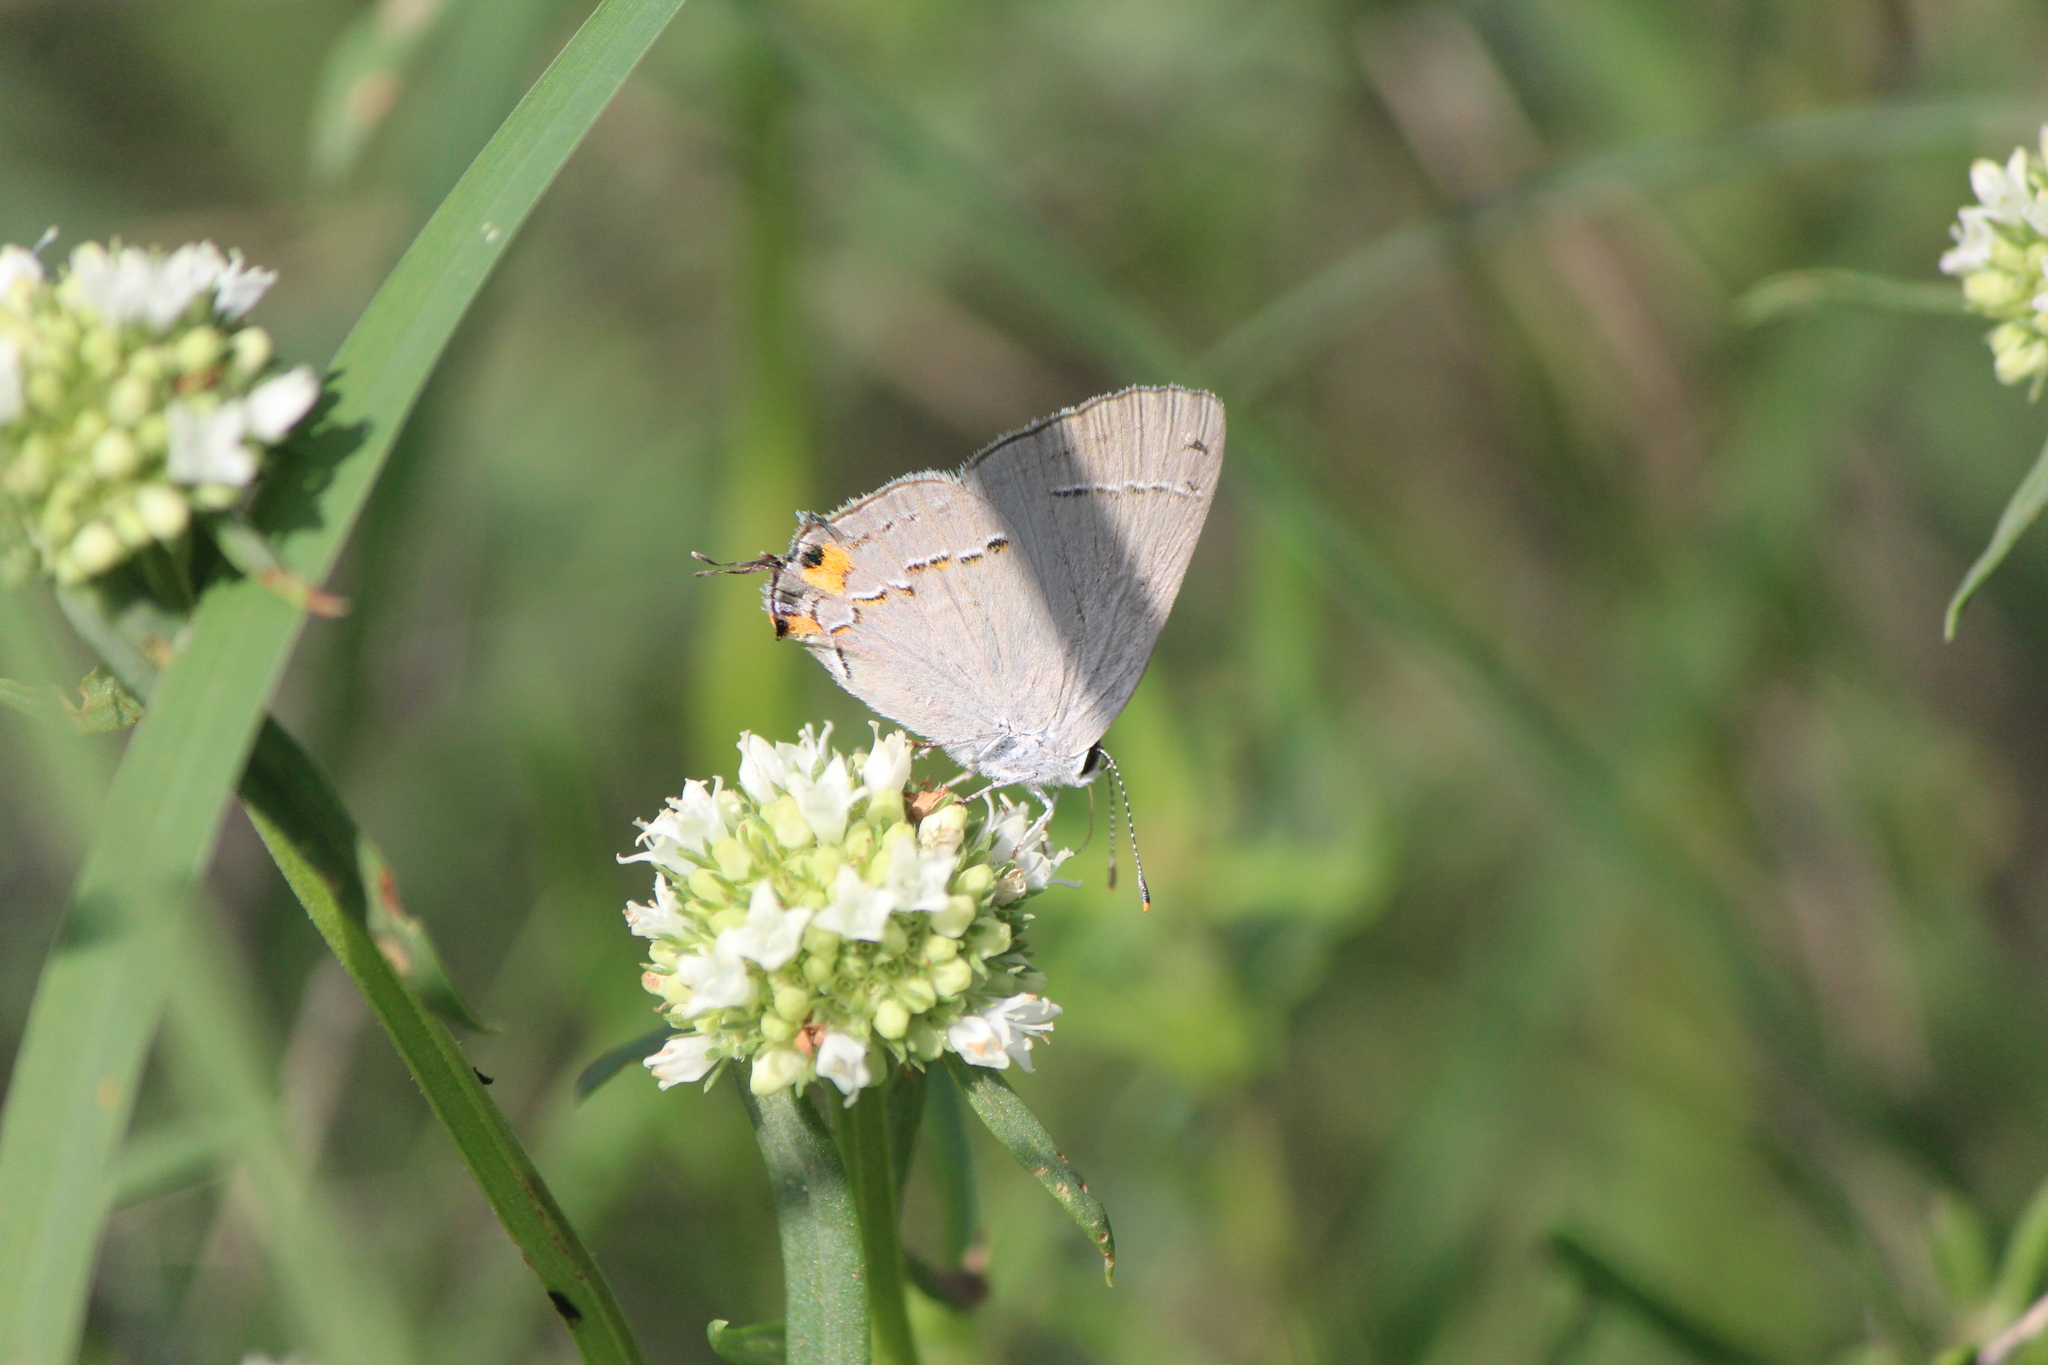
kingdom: Animalia
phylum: Arthropoda
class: Insecta
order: Lepidoptera
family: Lycaenidae
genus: Strymon
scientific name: Strymon melinus
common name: Gray hairstreak
